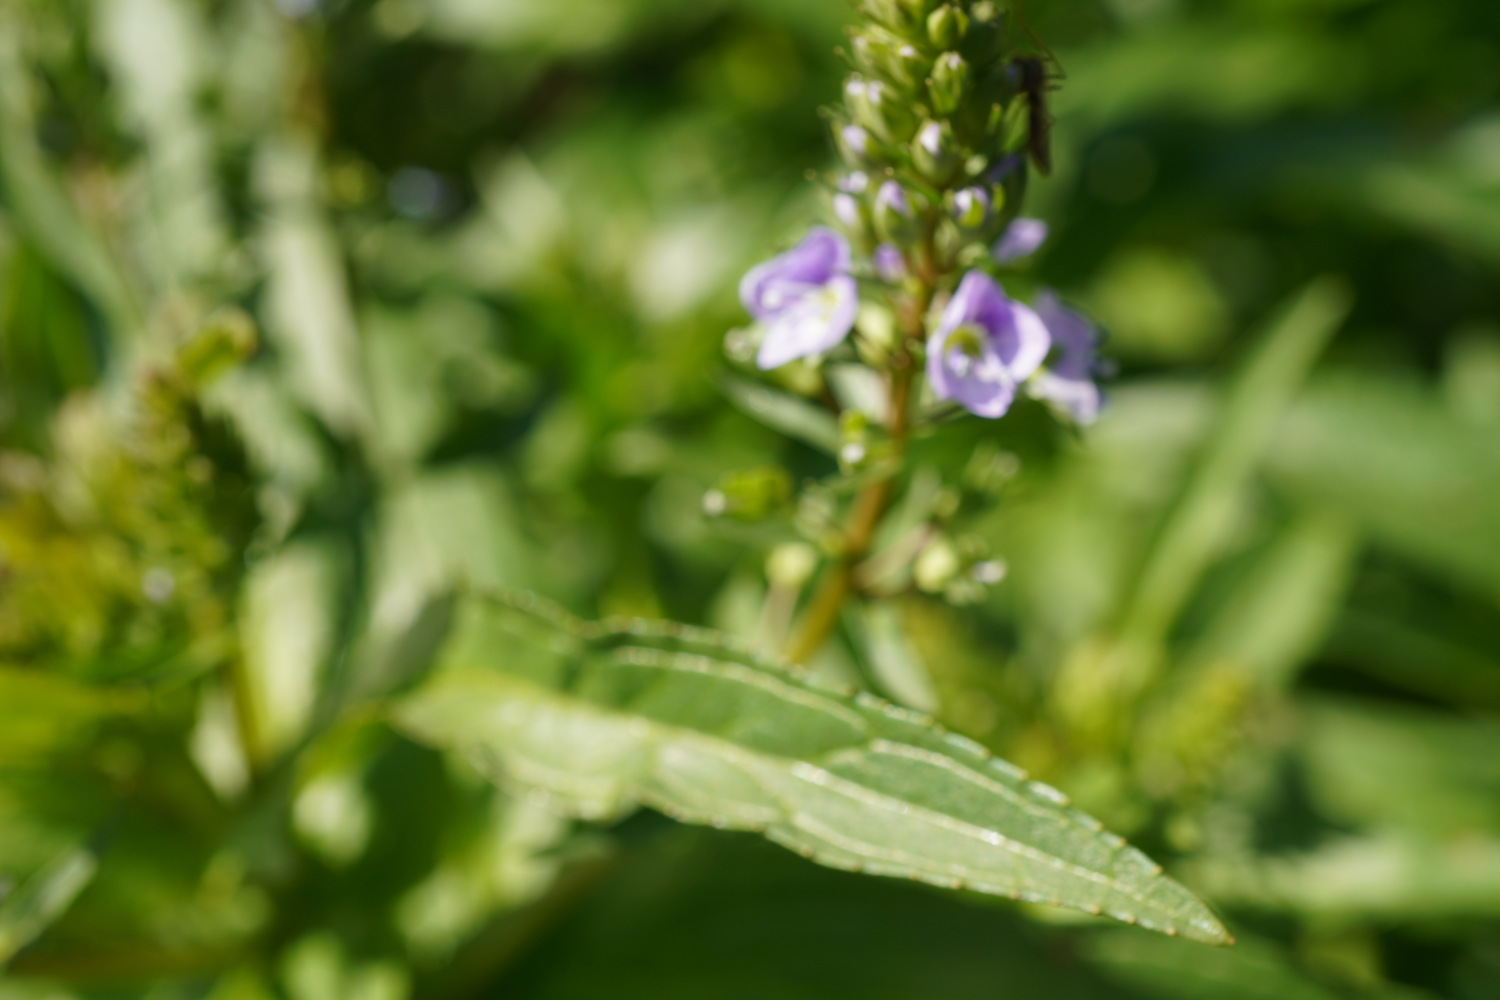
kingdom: Plantae
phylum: Tracheophyta
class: Magnoliopsida
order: Lamiales
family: Plantaginaceae
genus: Veronica
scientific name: Veronica anagallis-aquatica
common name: Water speedwell
